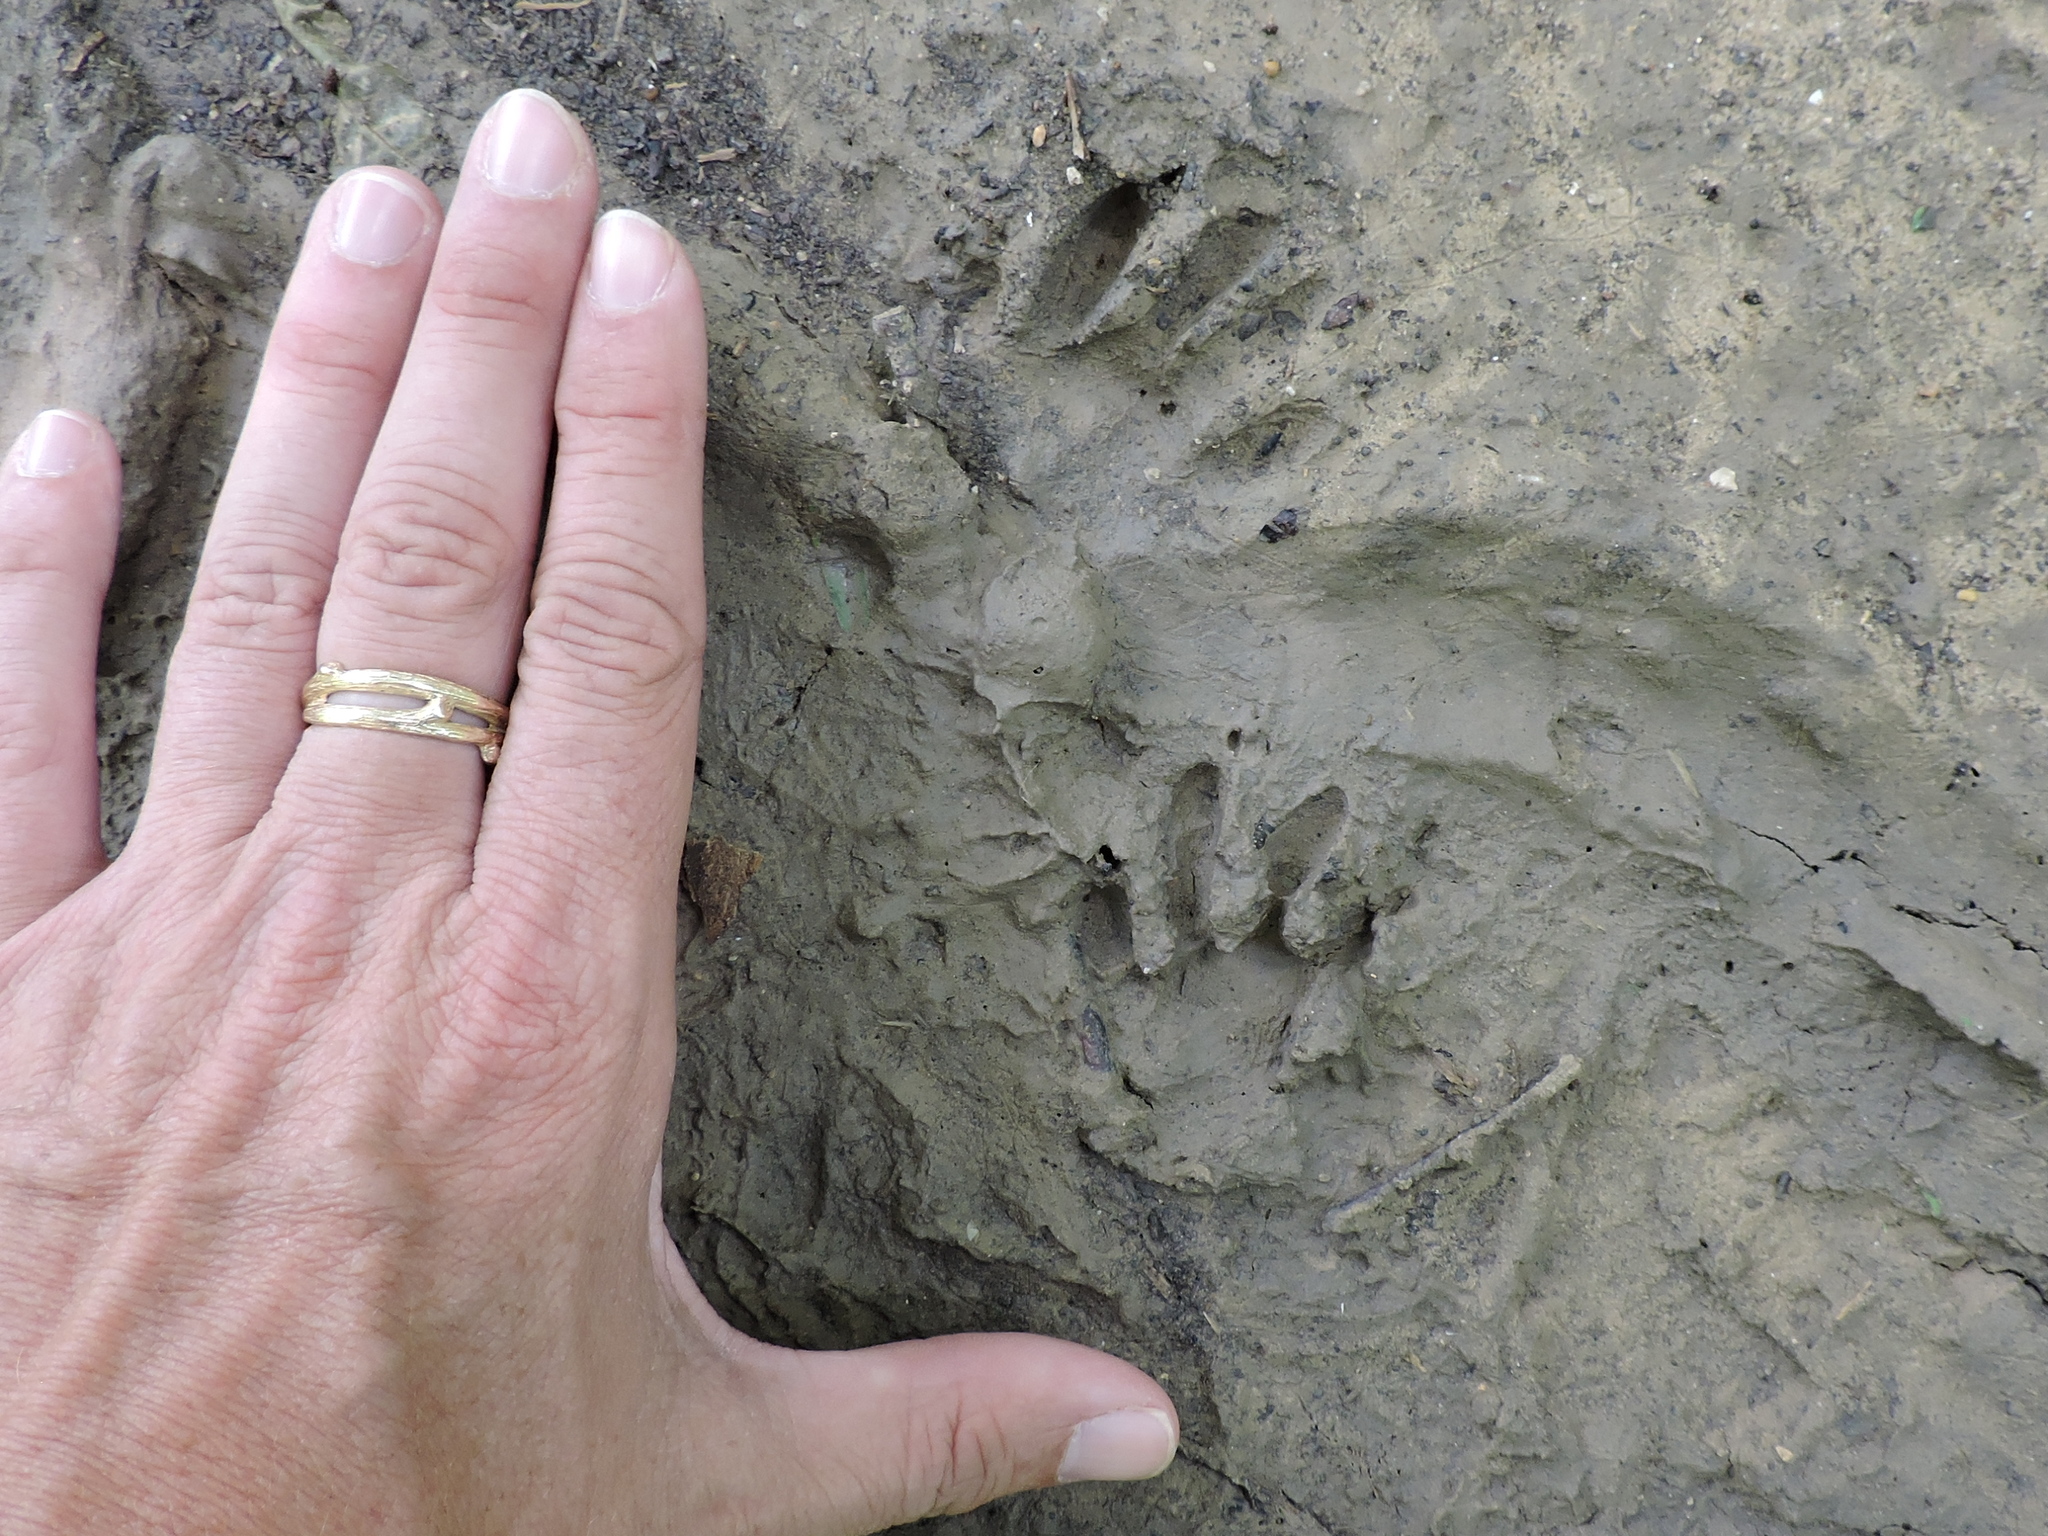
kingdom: Animalia
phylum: Chordata
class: Mammalia
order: Carnivora
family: Procyonidae
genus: Procyon
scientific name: Procyon lotor
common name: Raccoon
